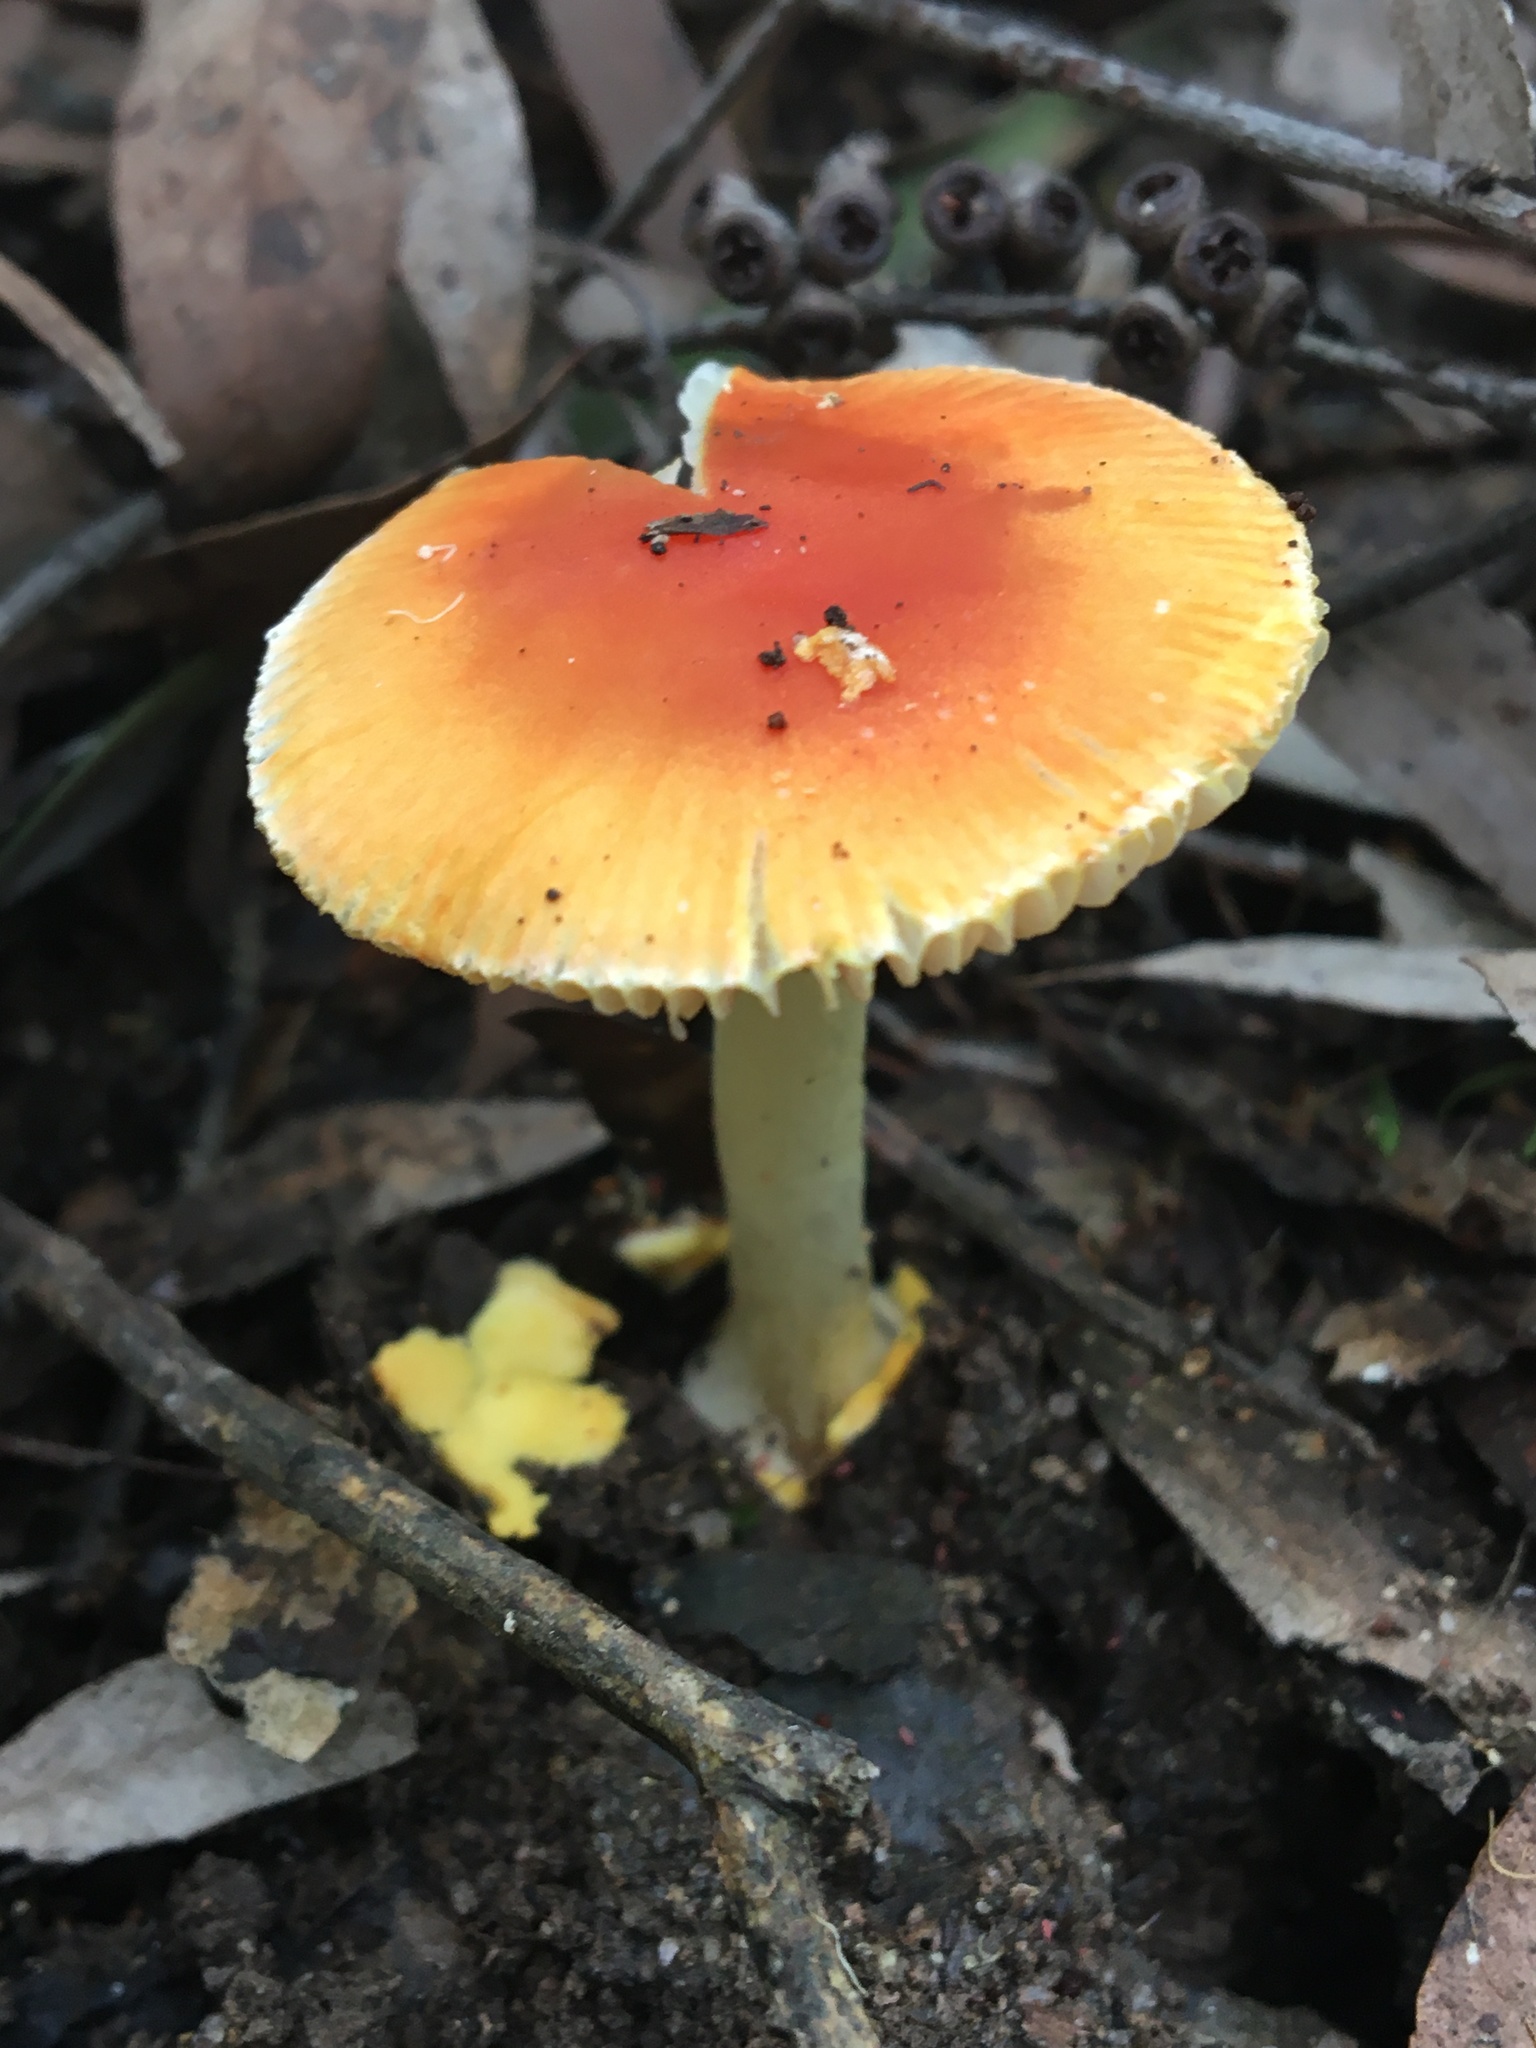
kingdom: Fungi
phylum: Basidiomycota
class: Agaricomycetes
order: Agaricales
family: Amanitaceae
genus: Amanita
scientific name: Amanita xanthocephala
